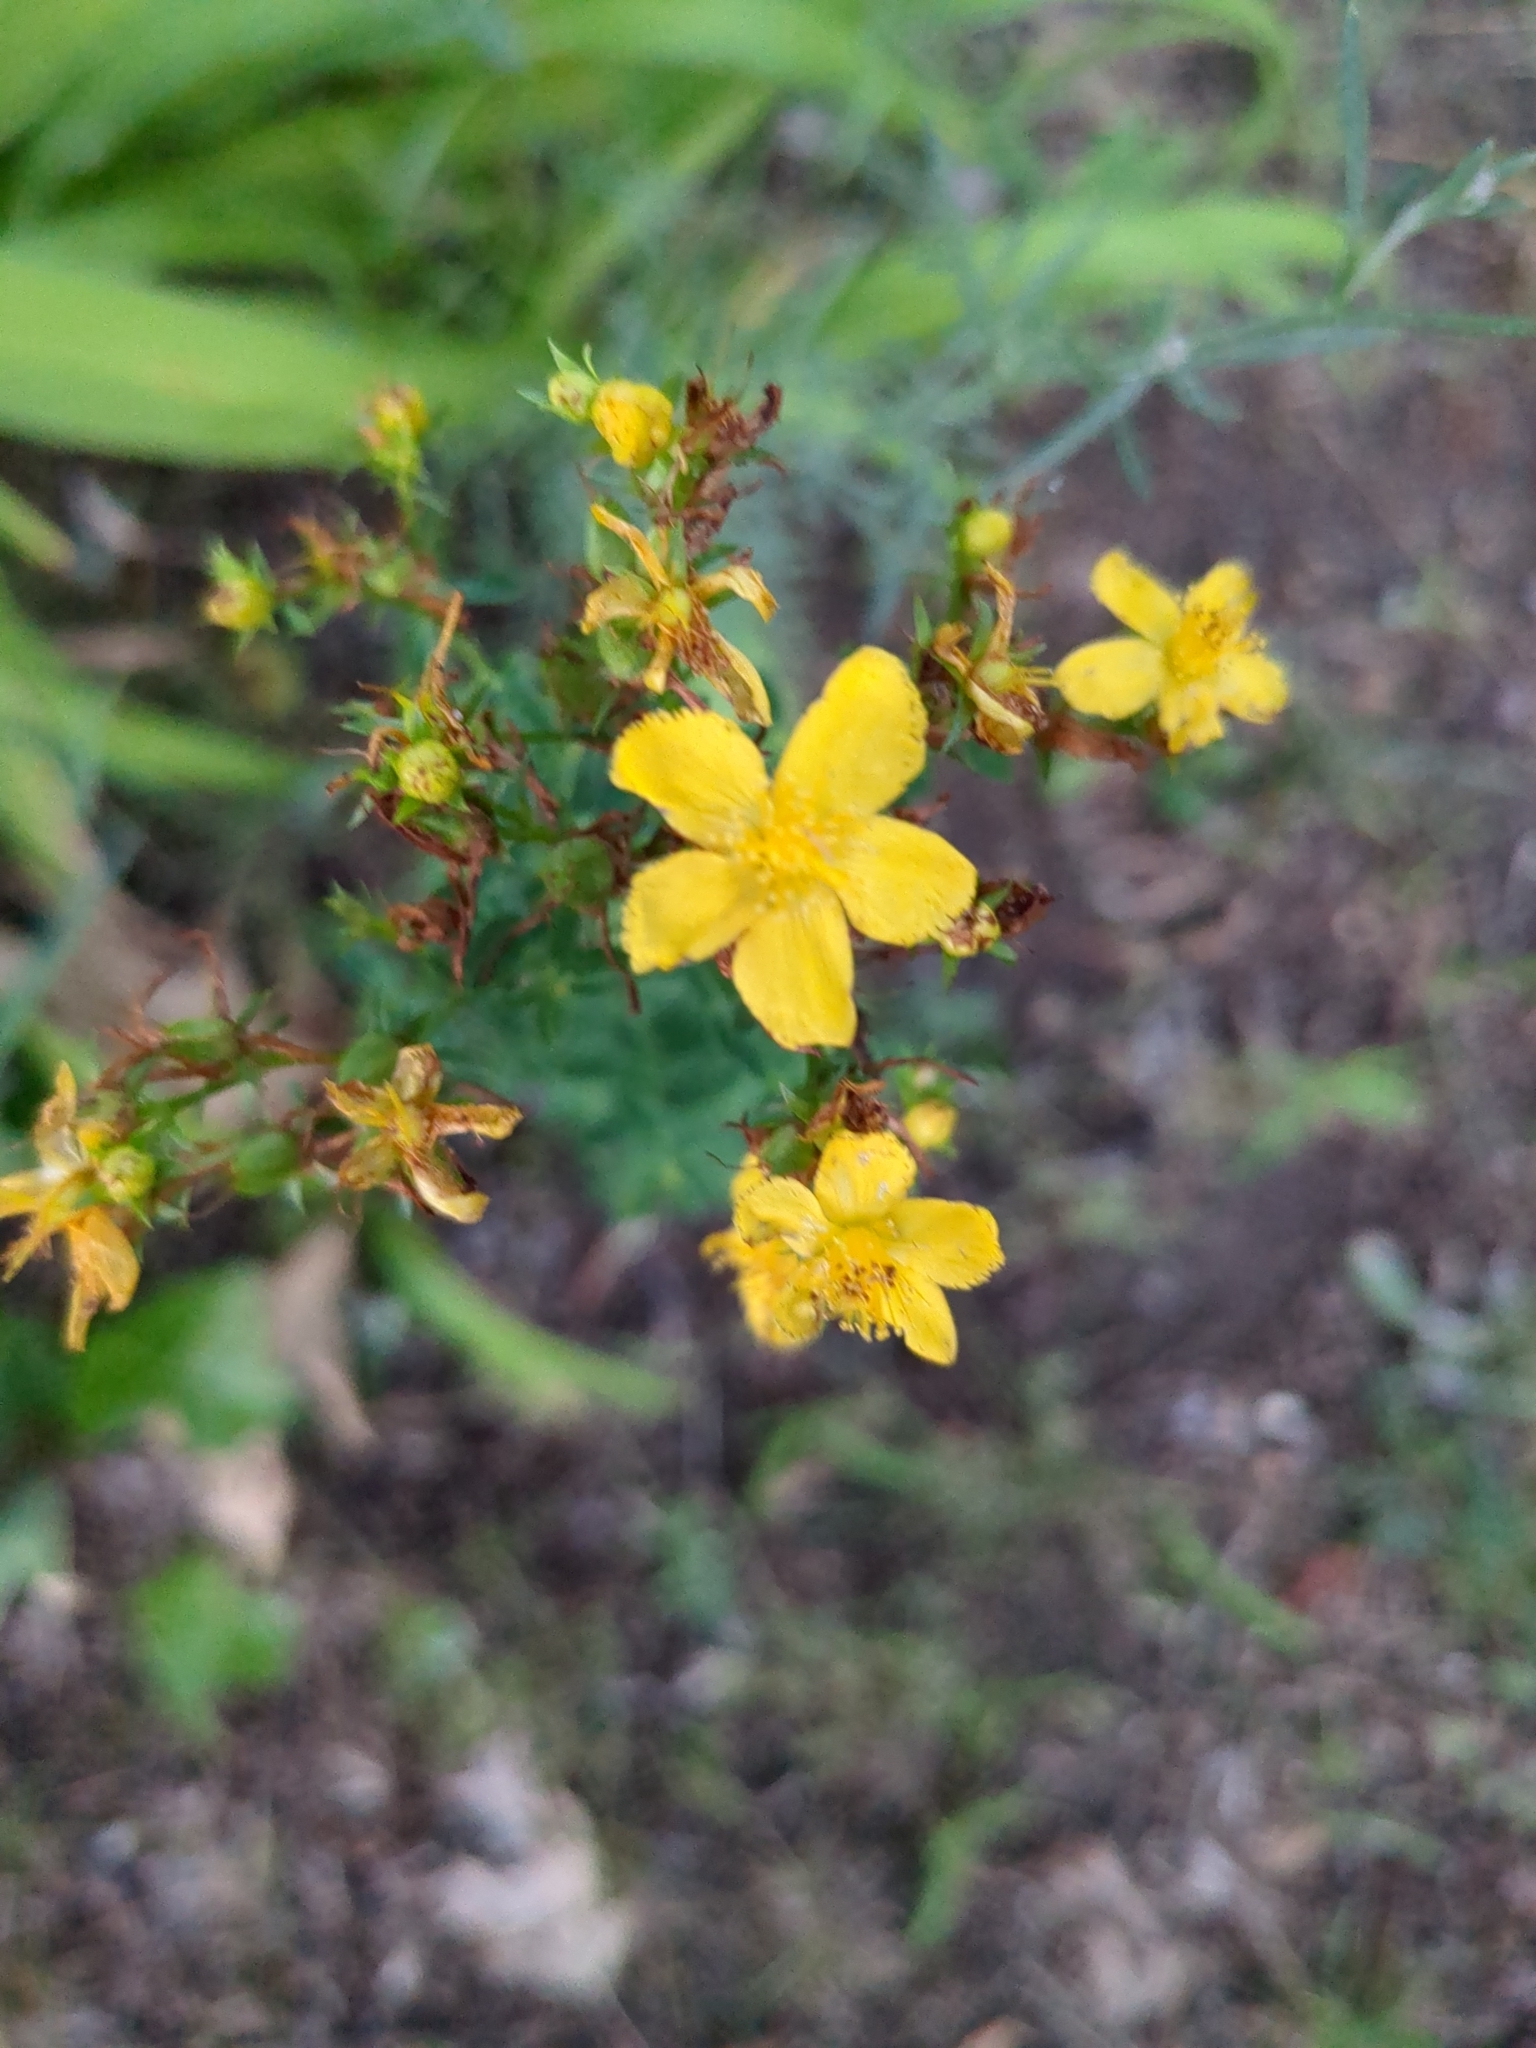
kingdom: Plantae
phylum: Tracheophyta
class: Magnoliopsida
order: Malpighiales
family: Hypericaceae
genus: Hypericum
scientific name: Hypericum perforatum
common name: Common st. johnswort
